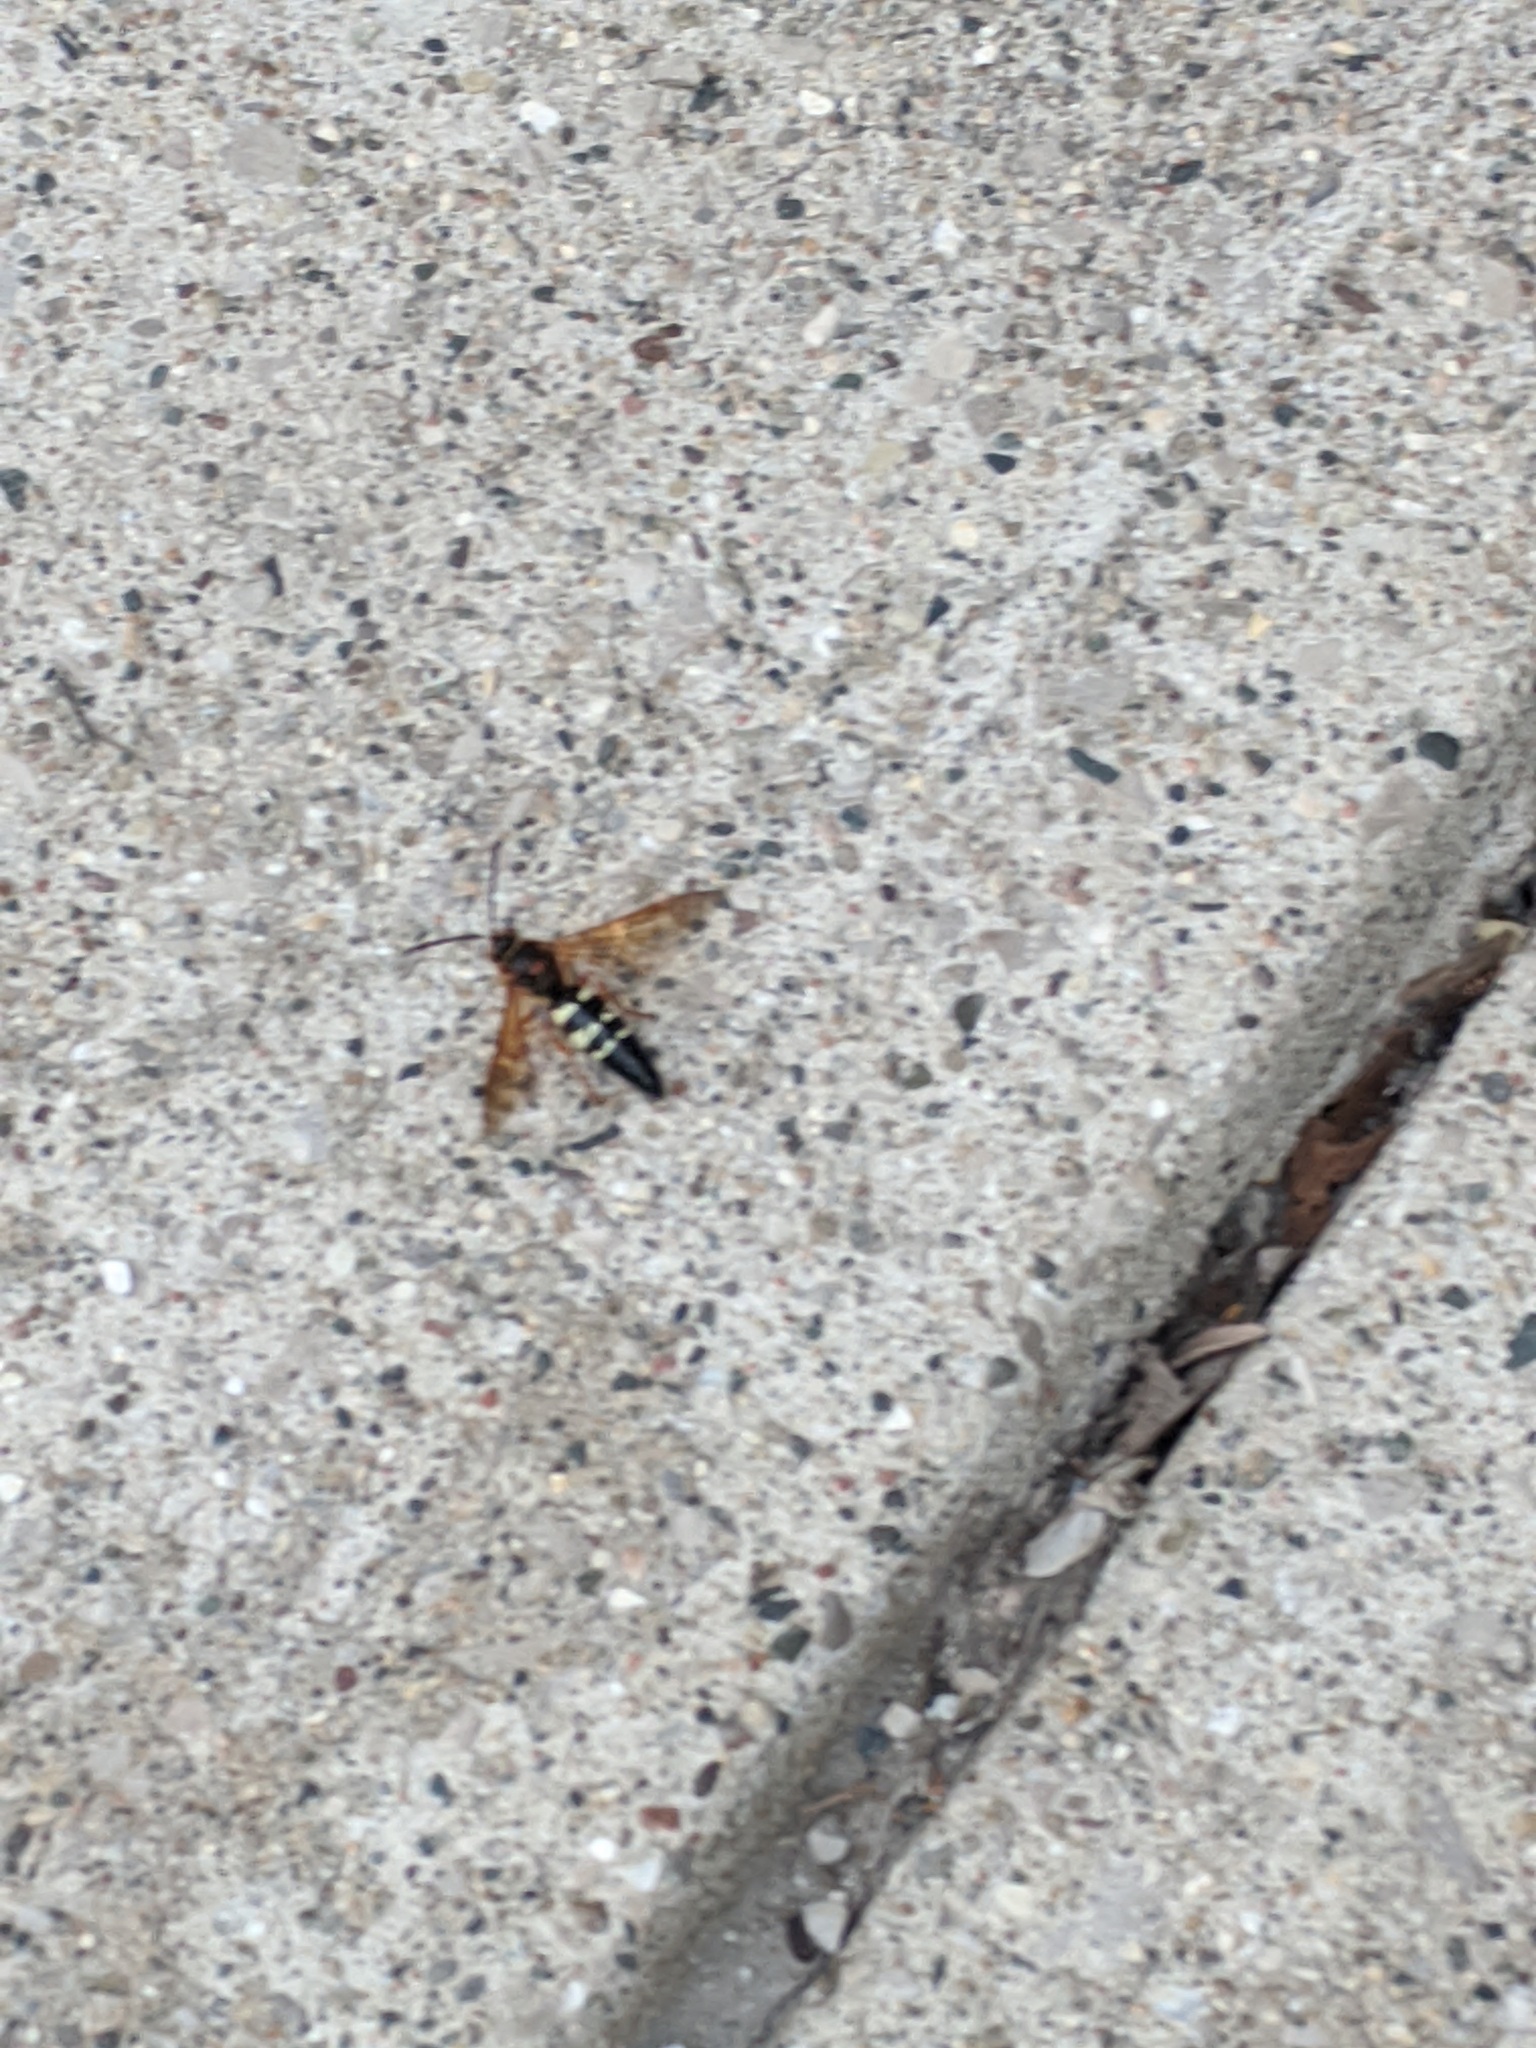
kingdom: Animalia
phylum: Arthropoda
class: Insecta
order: Hymenoptera
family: Crabronidae
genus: Sphecius
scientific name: Sphecius speciosus
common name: Cicada killer
